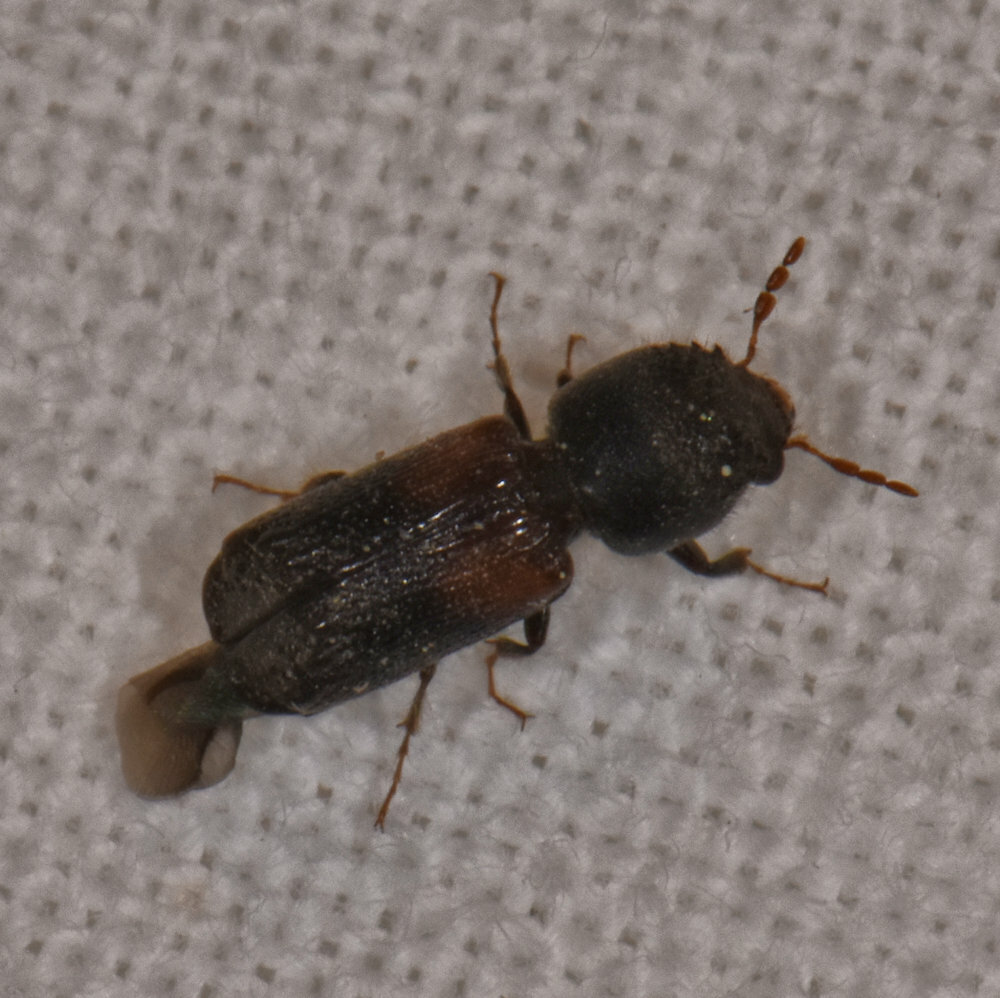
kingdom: Animalia
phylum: Arthropoda
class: Insecta
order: Coleoptera
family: Bostrichidae
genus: Xylobiops
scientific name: Xylobiops basilaris
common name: Red-shouldered bostrichid
